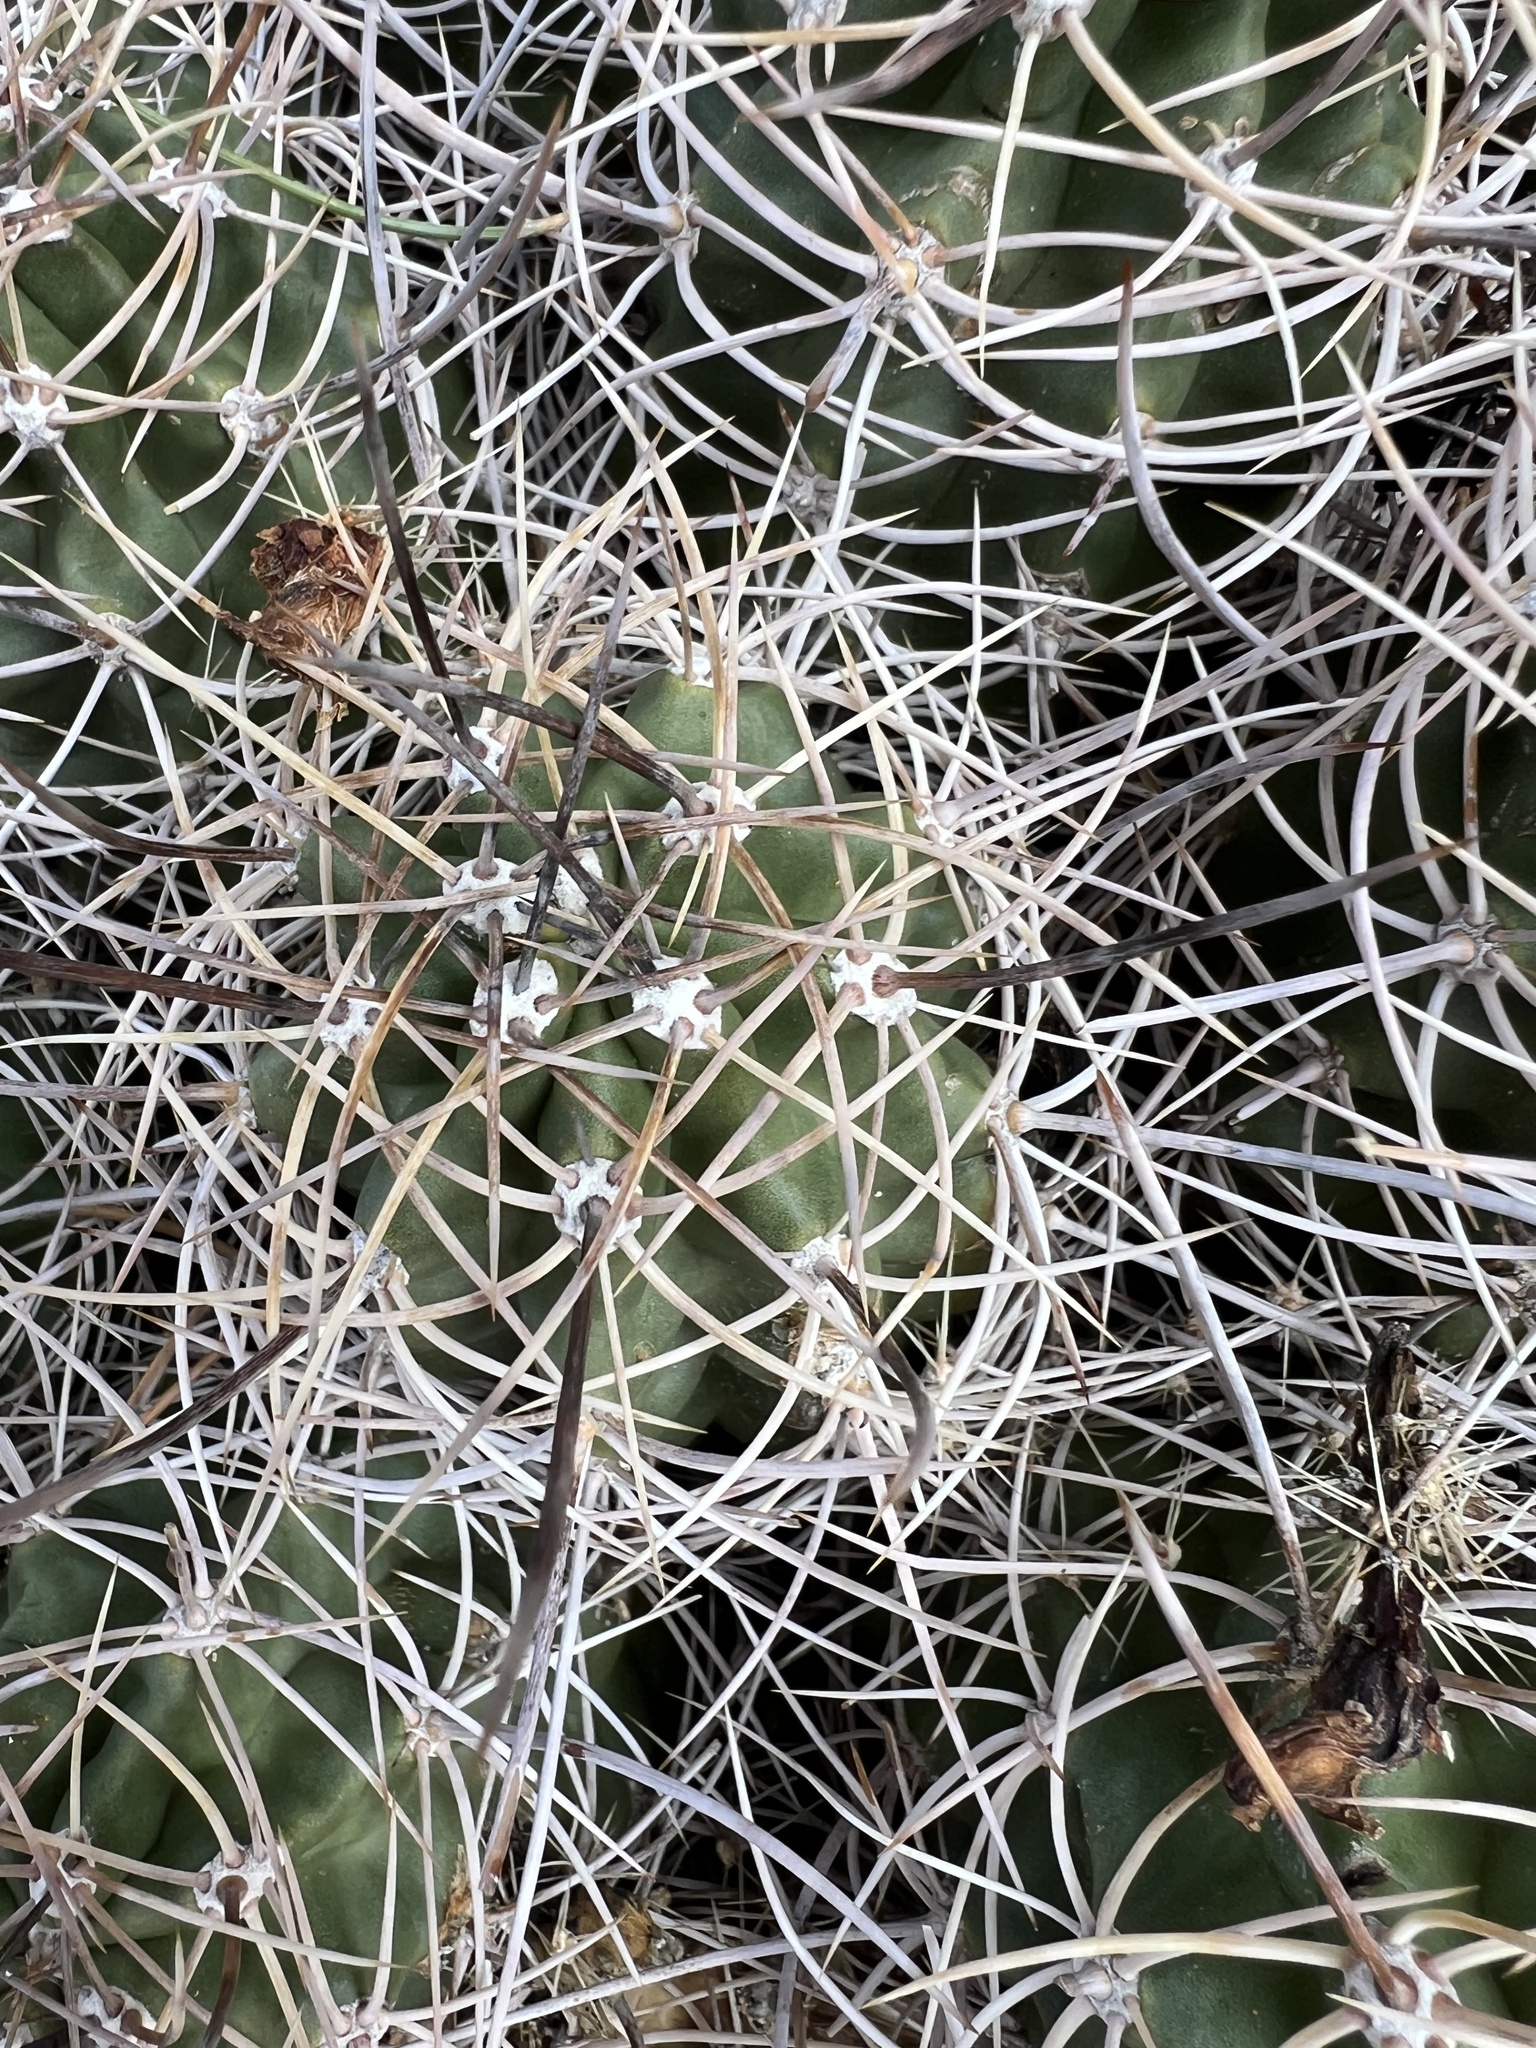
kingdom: Plantae
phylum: Tracheophyta
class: Magnoliopsida
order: Caryophyllales
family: Cactaceae
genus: Echinocereus
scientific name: Echinocereus triglochidiatus
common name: Claretcup hedgehog
